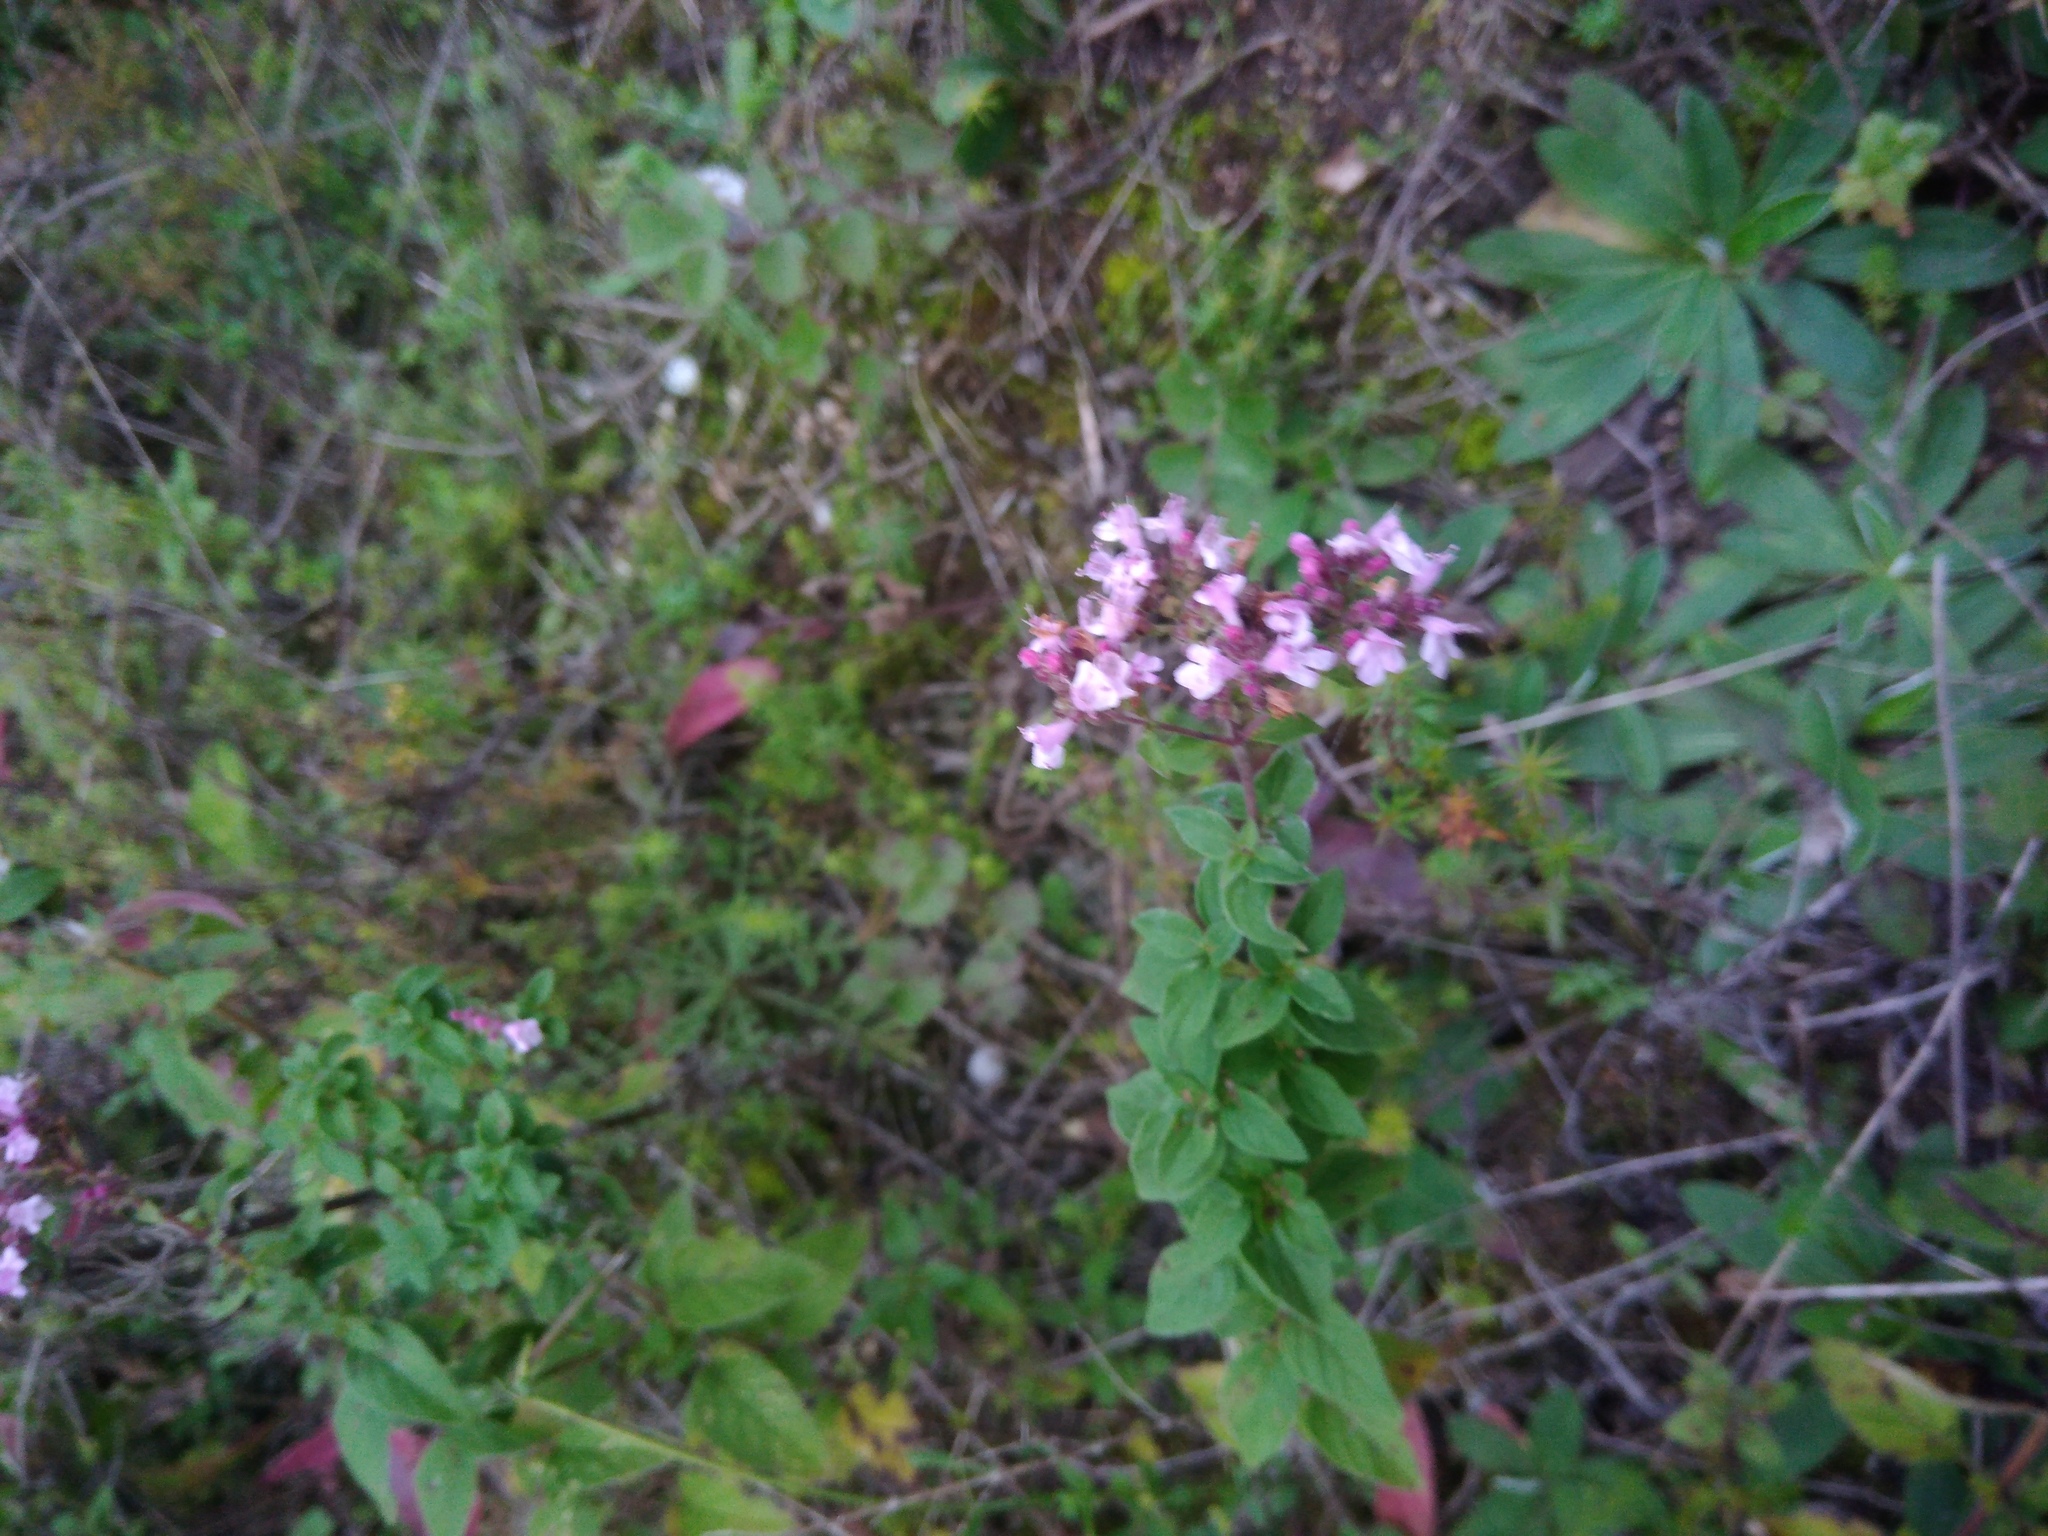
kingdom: Plantae
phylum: Tracheophyta
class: Magnoliopsida
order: Lamiales
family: Lamiaceae
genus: Origanum
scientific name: Origanum vulgare
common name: Wild marjoram
